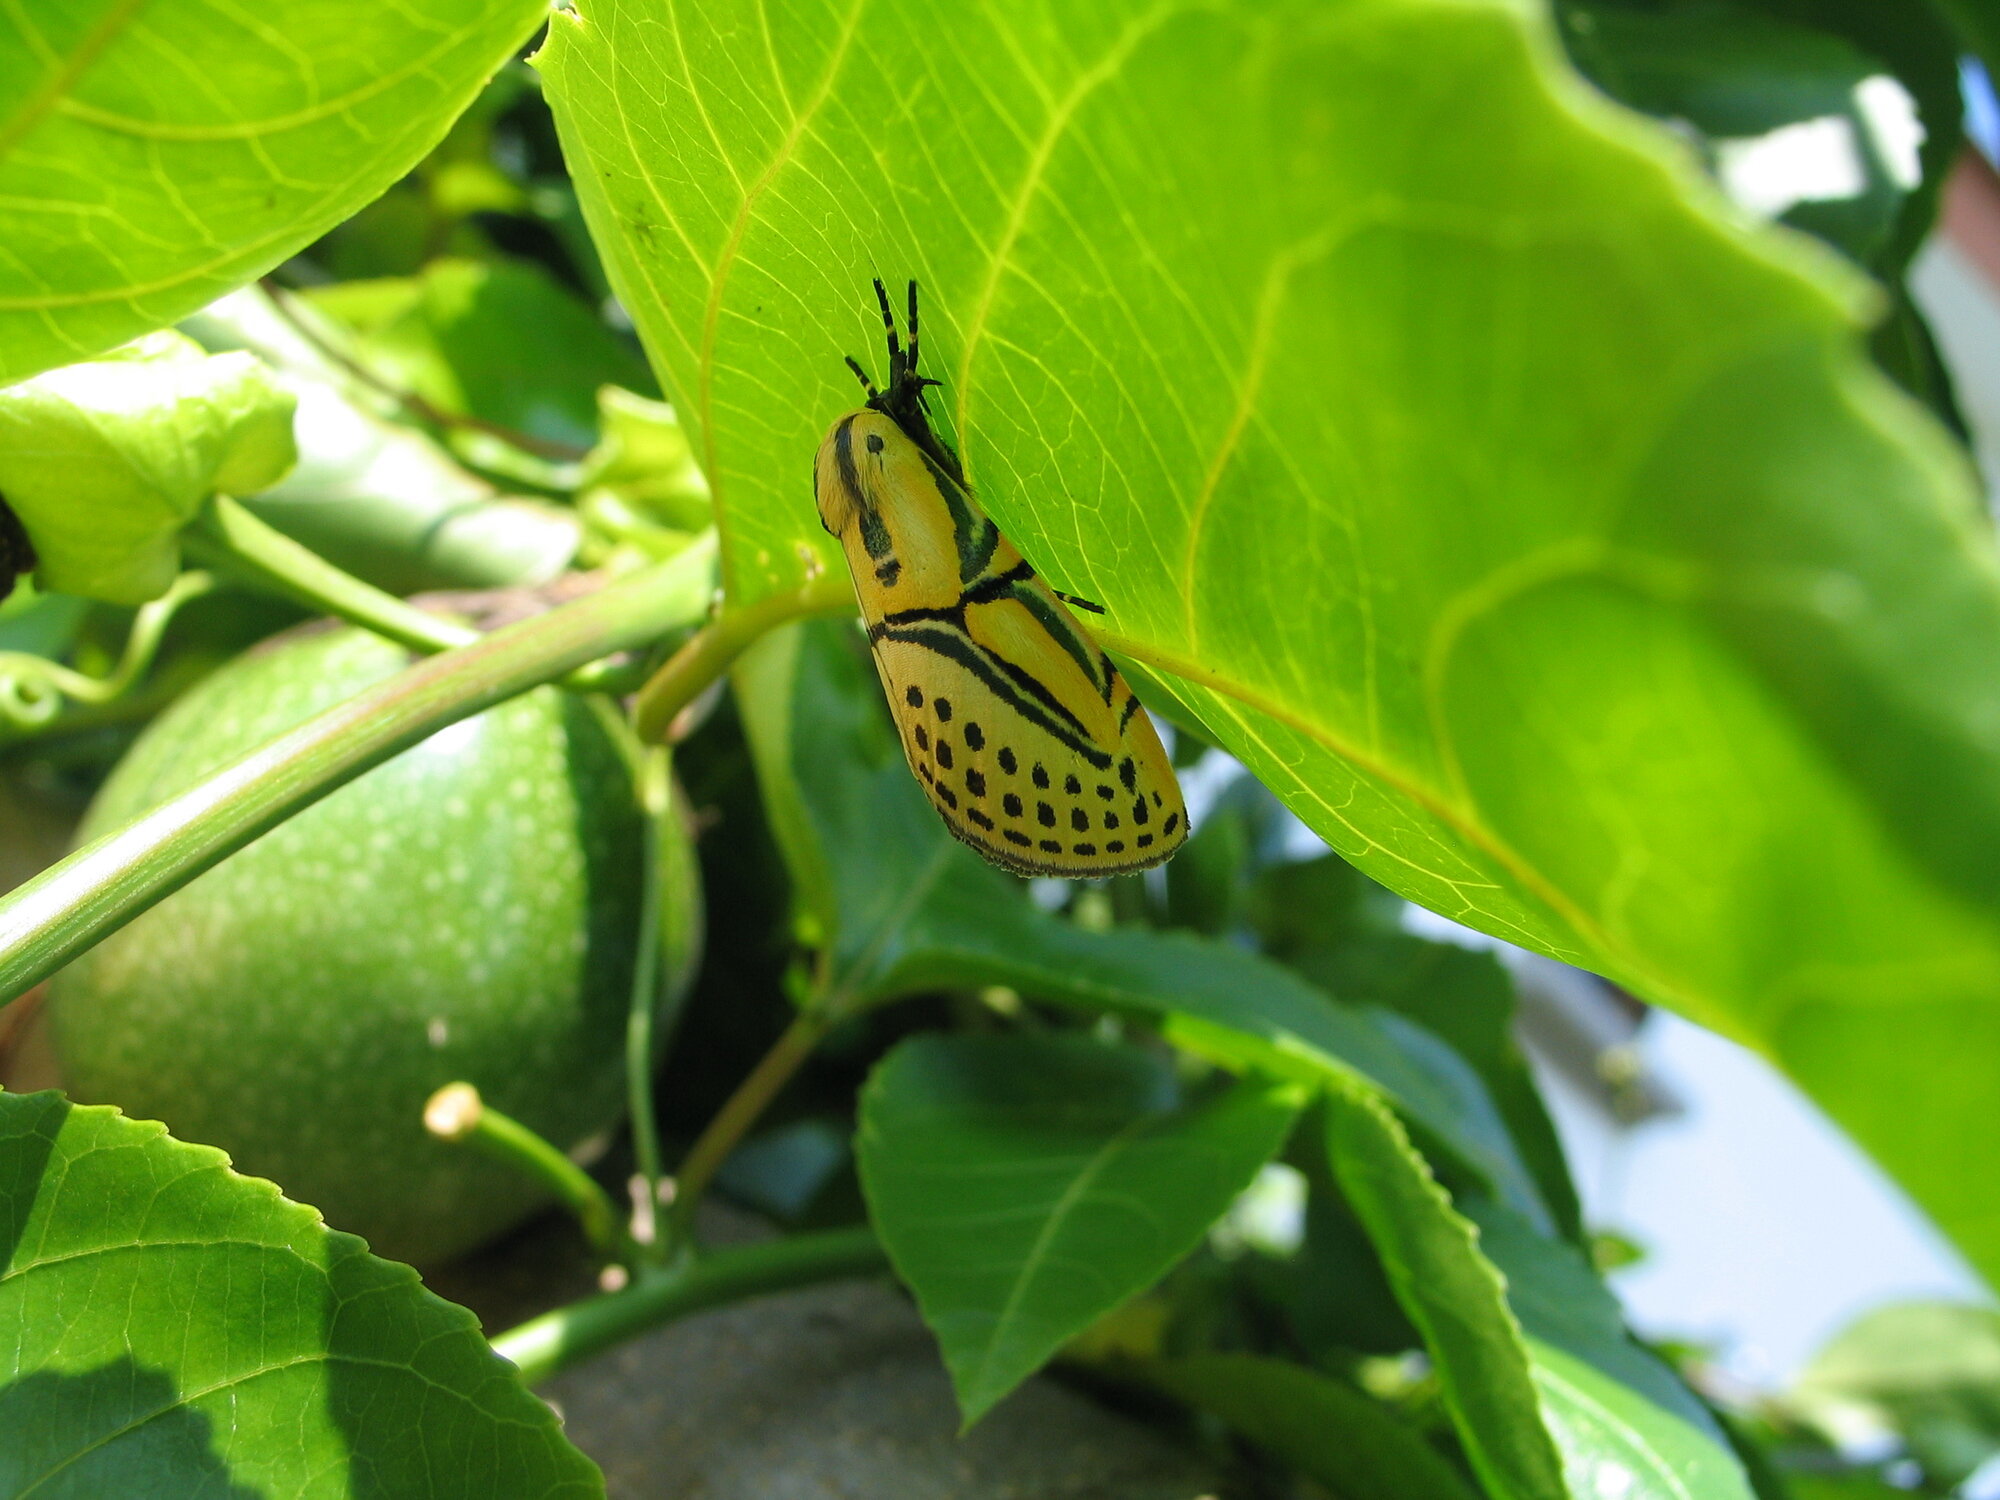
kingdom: Animalia
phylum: Arthropoda
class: Insecta
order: Lepidoptera
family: Erebidae
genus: Diphthera
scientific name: Diphthera festiva
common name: Hieroglyphic moth
